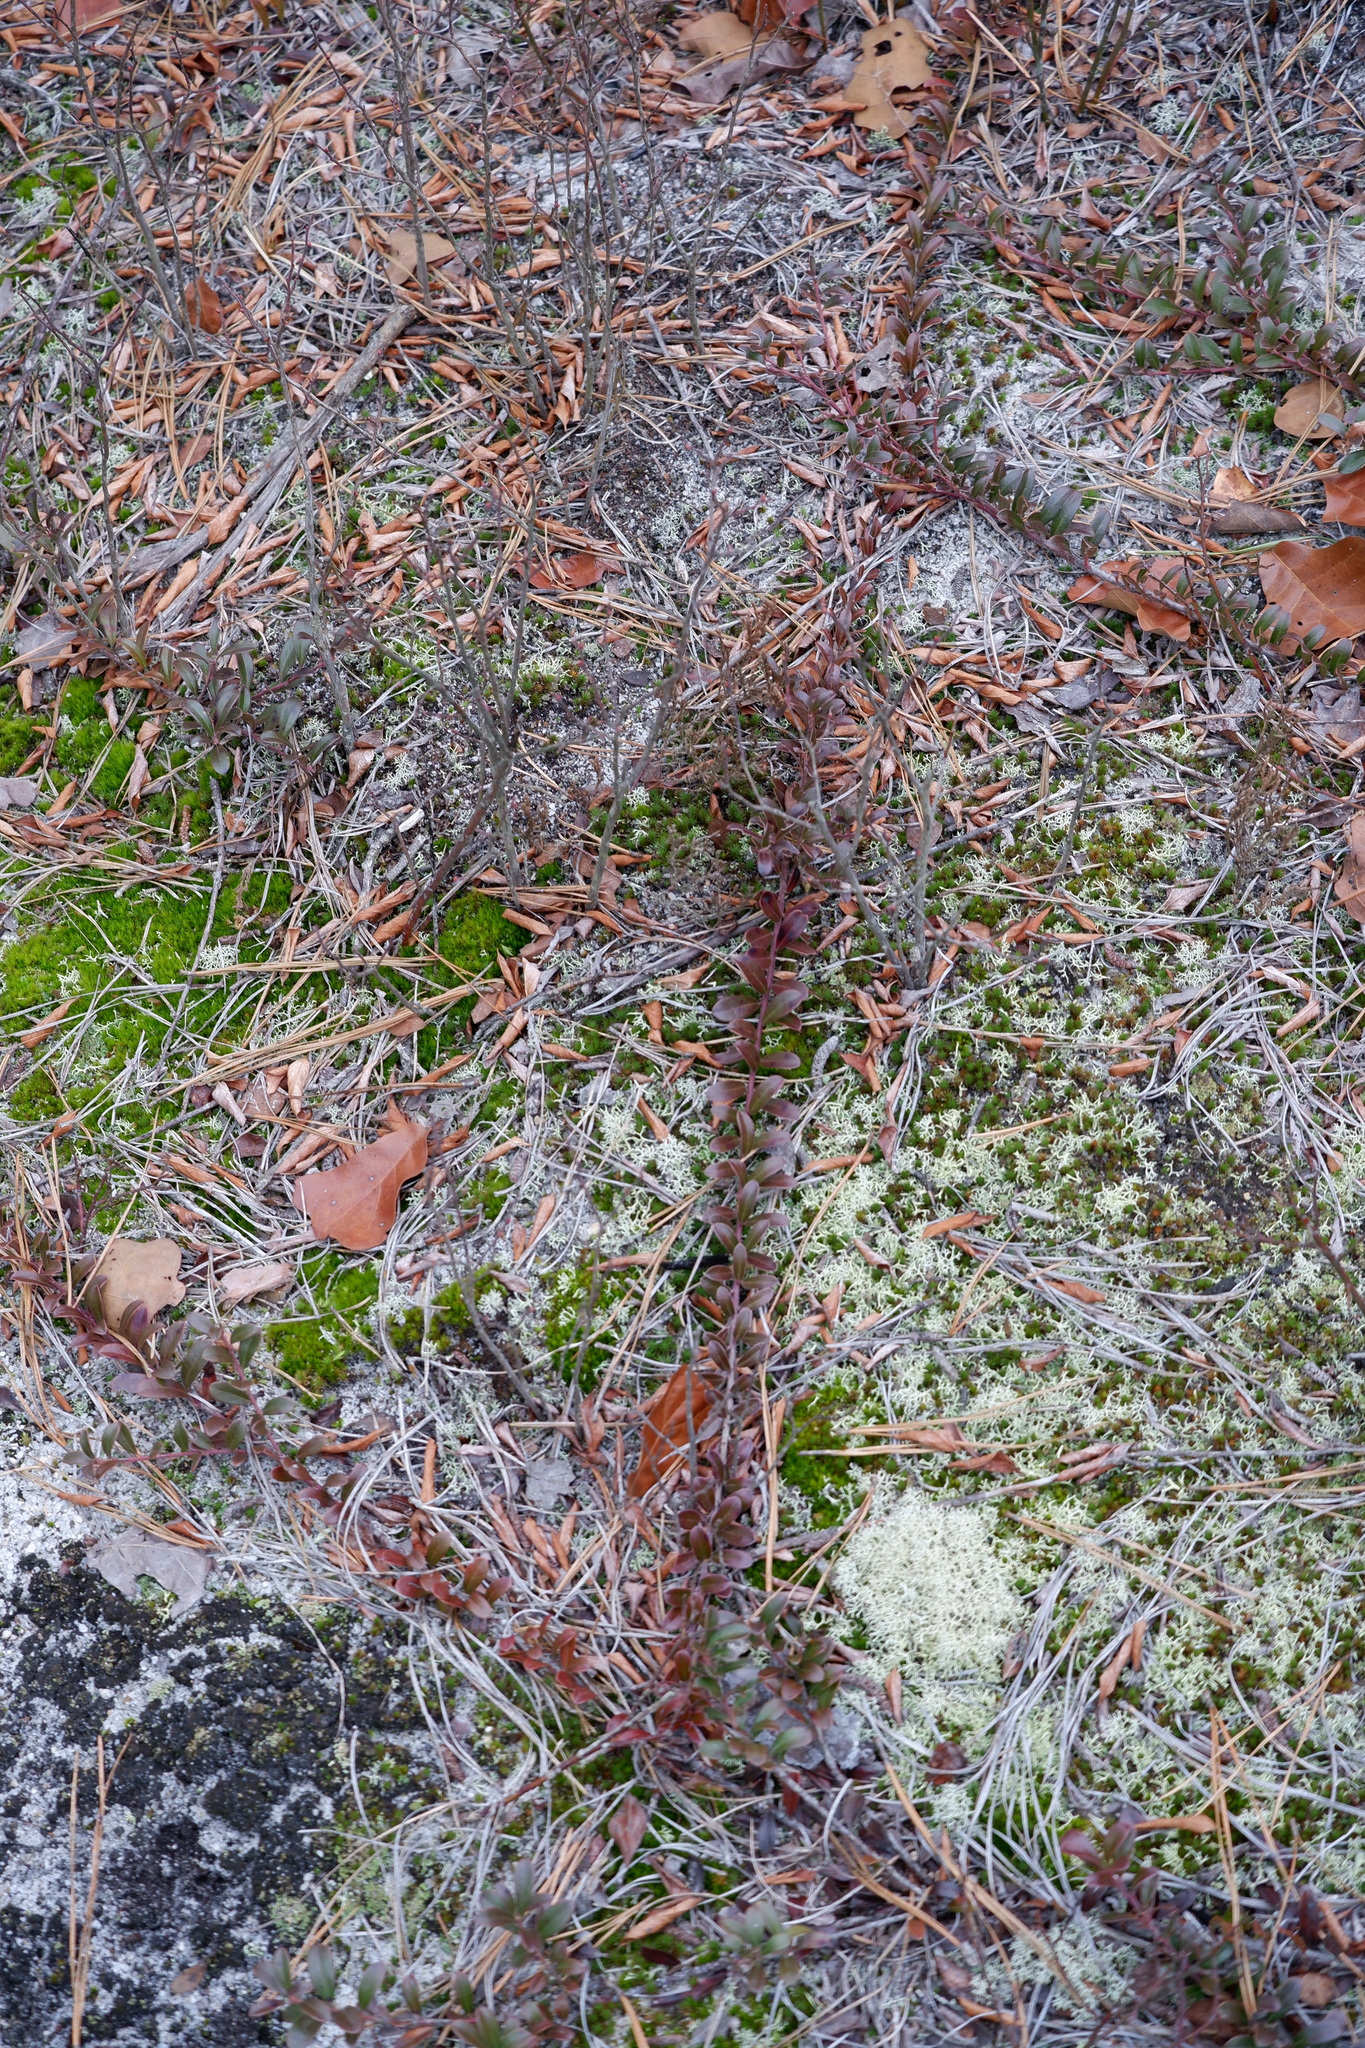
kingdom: Plantae
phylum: Tracheophyta
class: Magnoliopsida
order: Ericales
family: Ericaceae
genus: Arctostaphylos
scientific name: Arctostaphylos uva-ursi
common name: Bearberry
